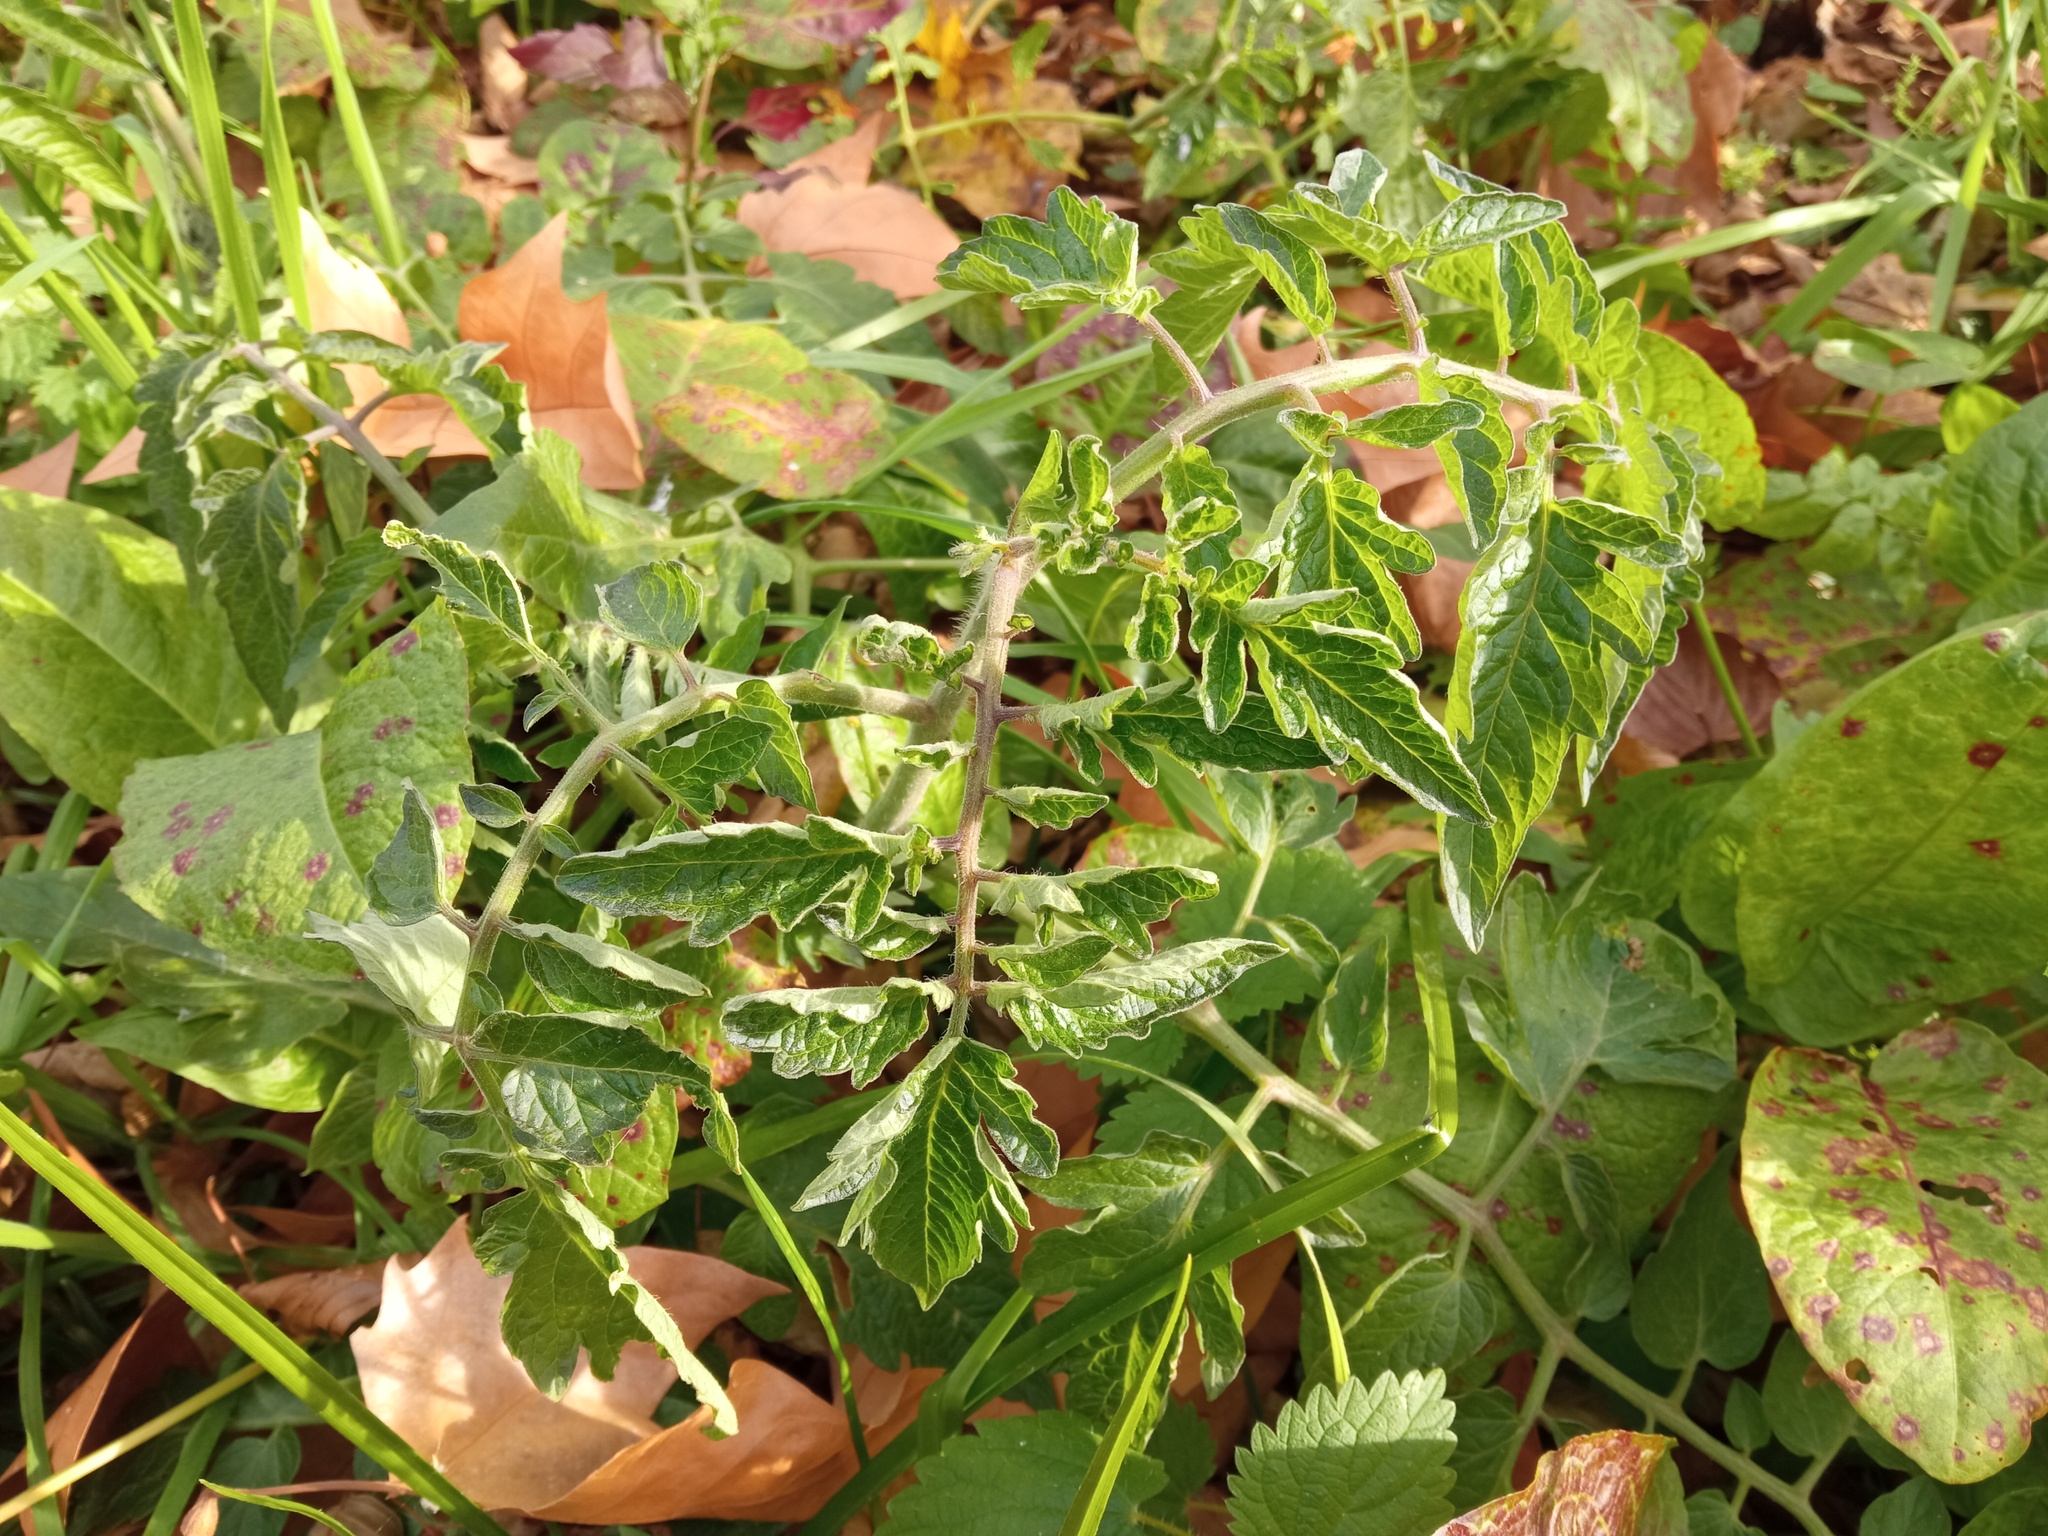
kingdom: Plantae
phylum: Tracheophyta
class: Magnoliopsida
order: Solanales
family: Solanaceae
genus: Solanum
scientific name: Solanum lycopersicum
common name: Garden tomato
